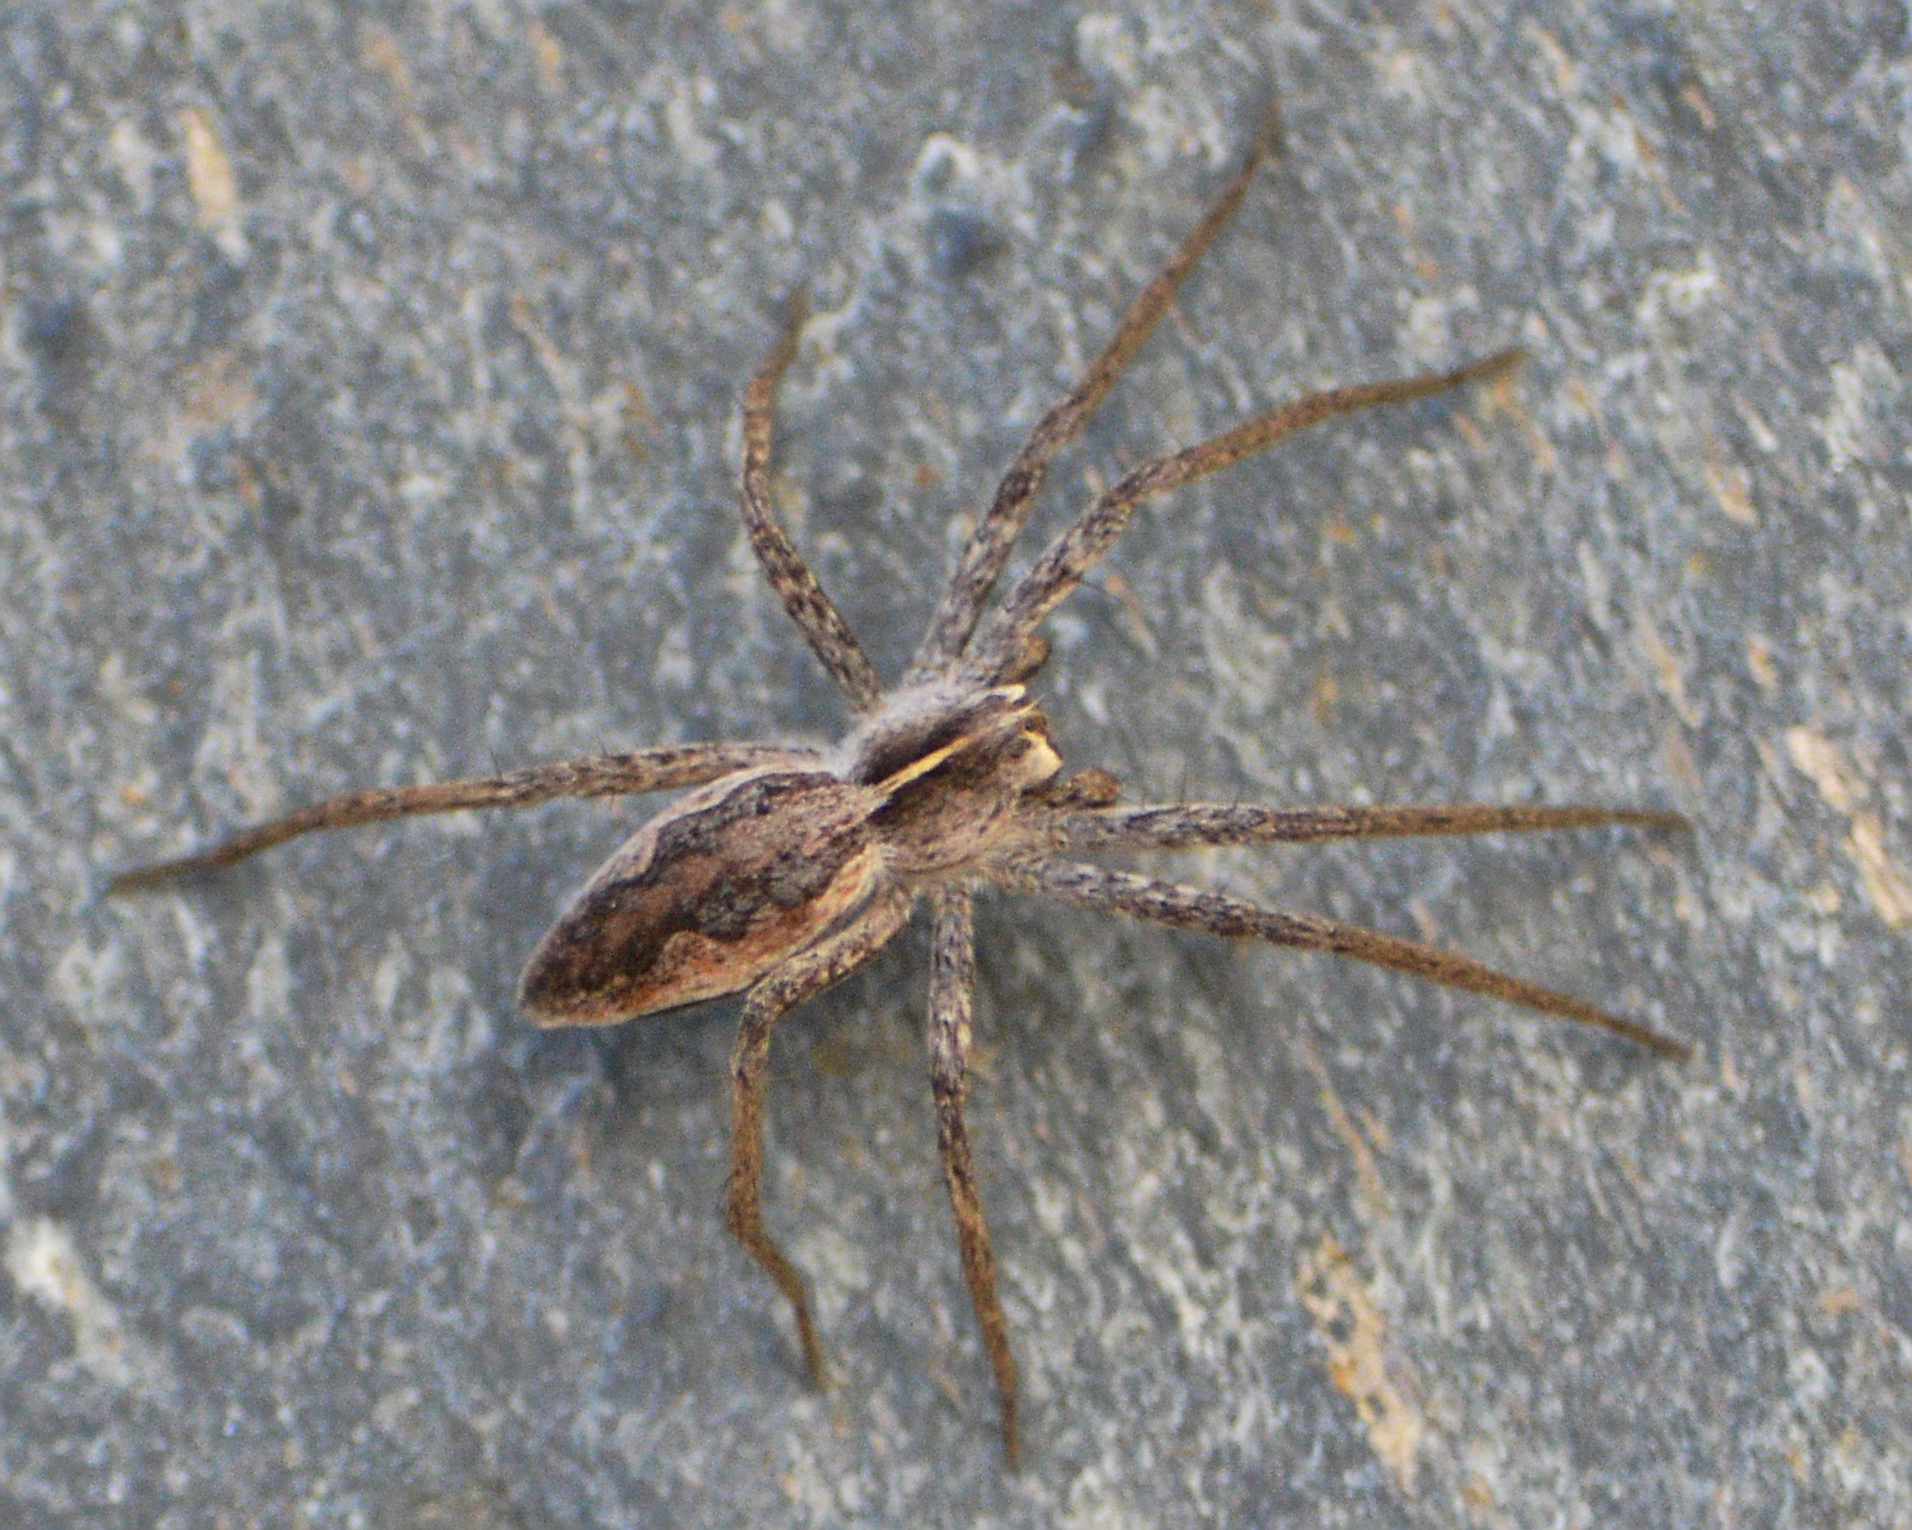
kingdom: Animalia
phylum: Arthropoda
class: Arachnida
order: Araneae
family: Pisauridae
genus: Pisaura
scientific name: Pisaura mirabilis
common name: Tent spider
